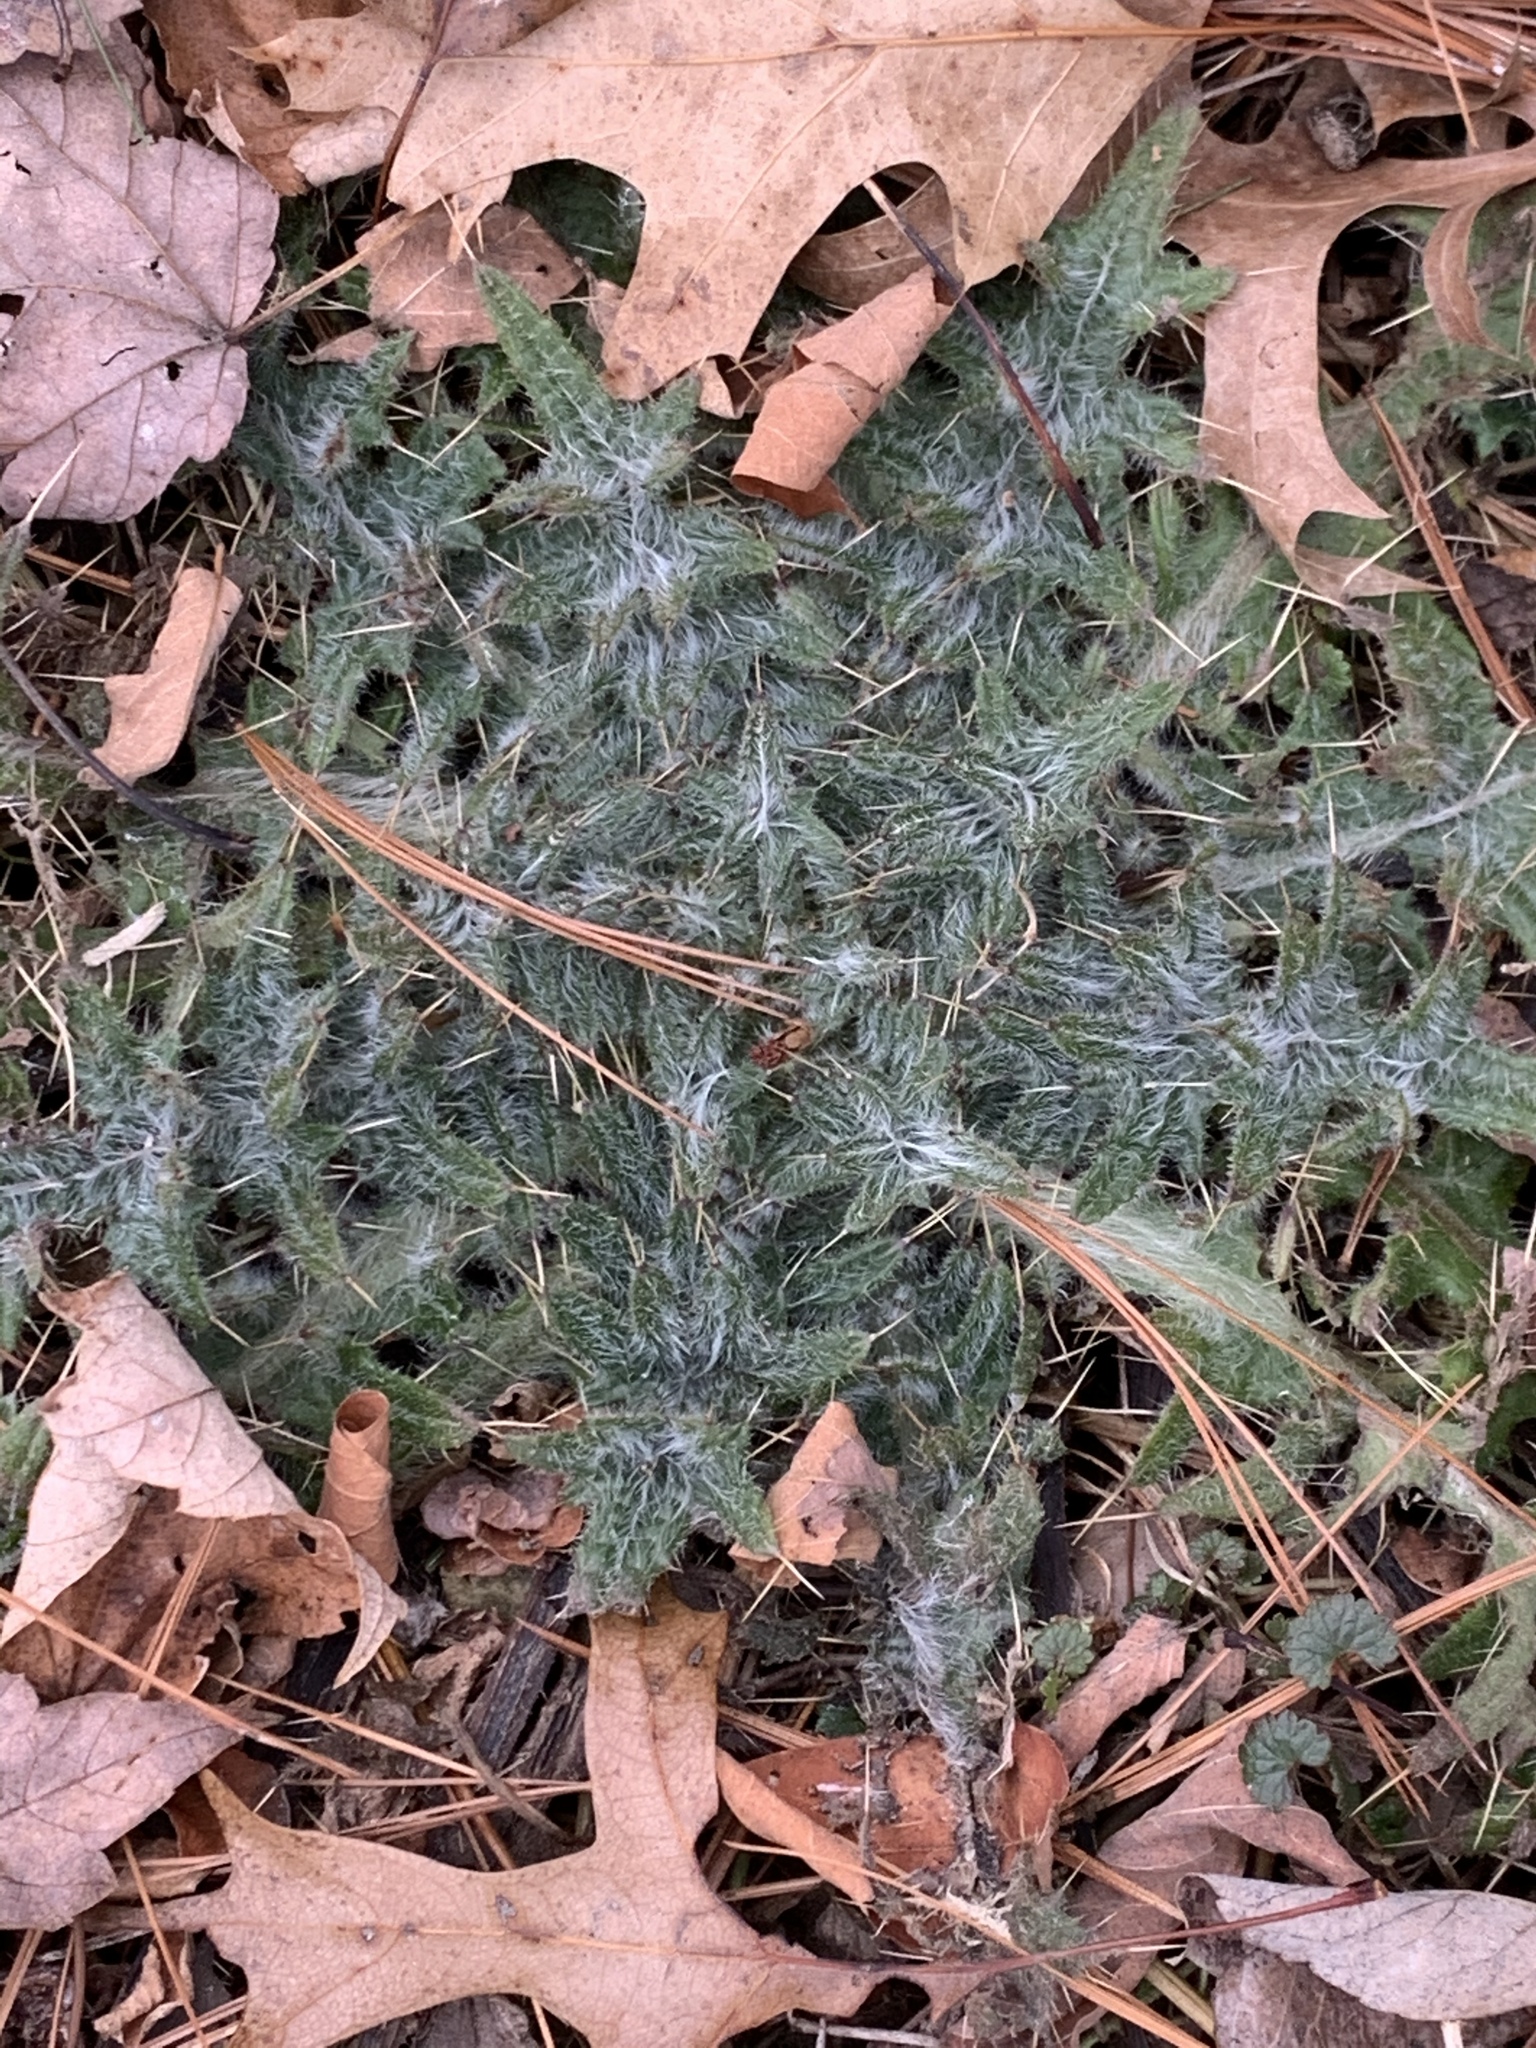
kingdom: Plantae
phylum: Tracheophyta
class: Magnoliopsida
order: Asterales
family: Asteraceae
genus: Cirsium
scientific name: Cirsium vulgare
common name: Bull thistle
